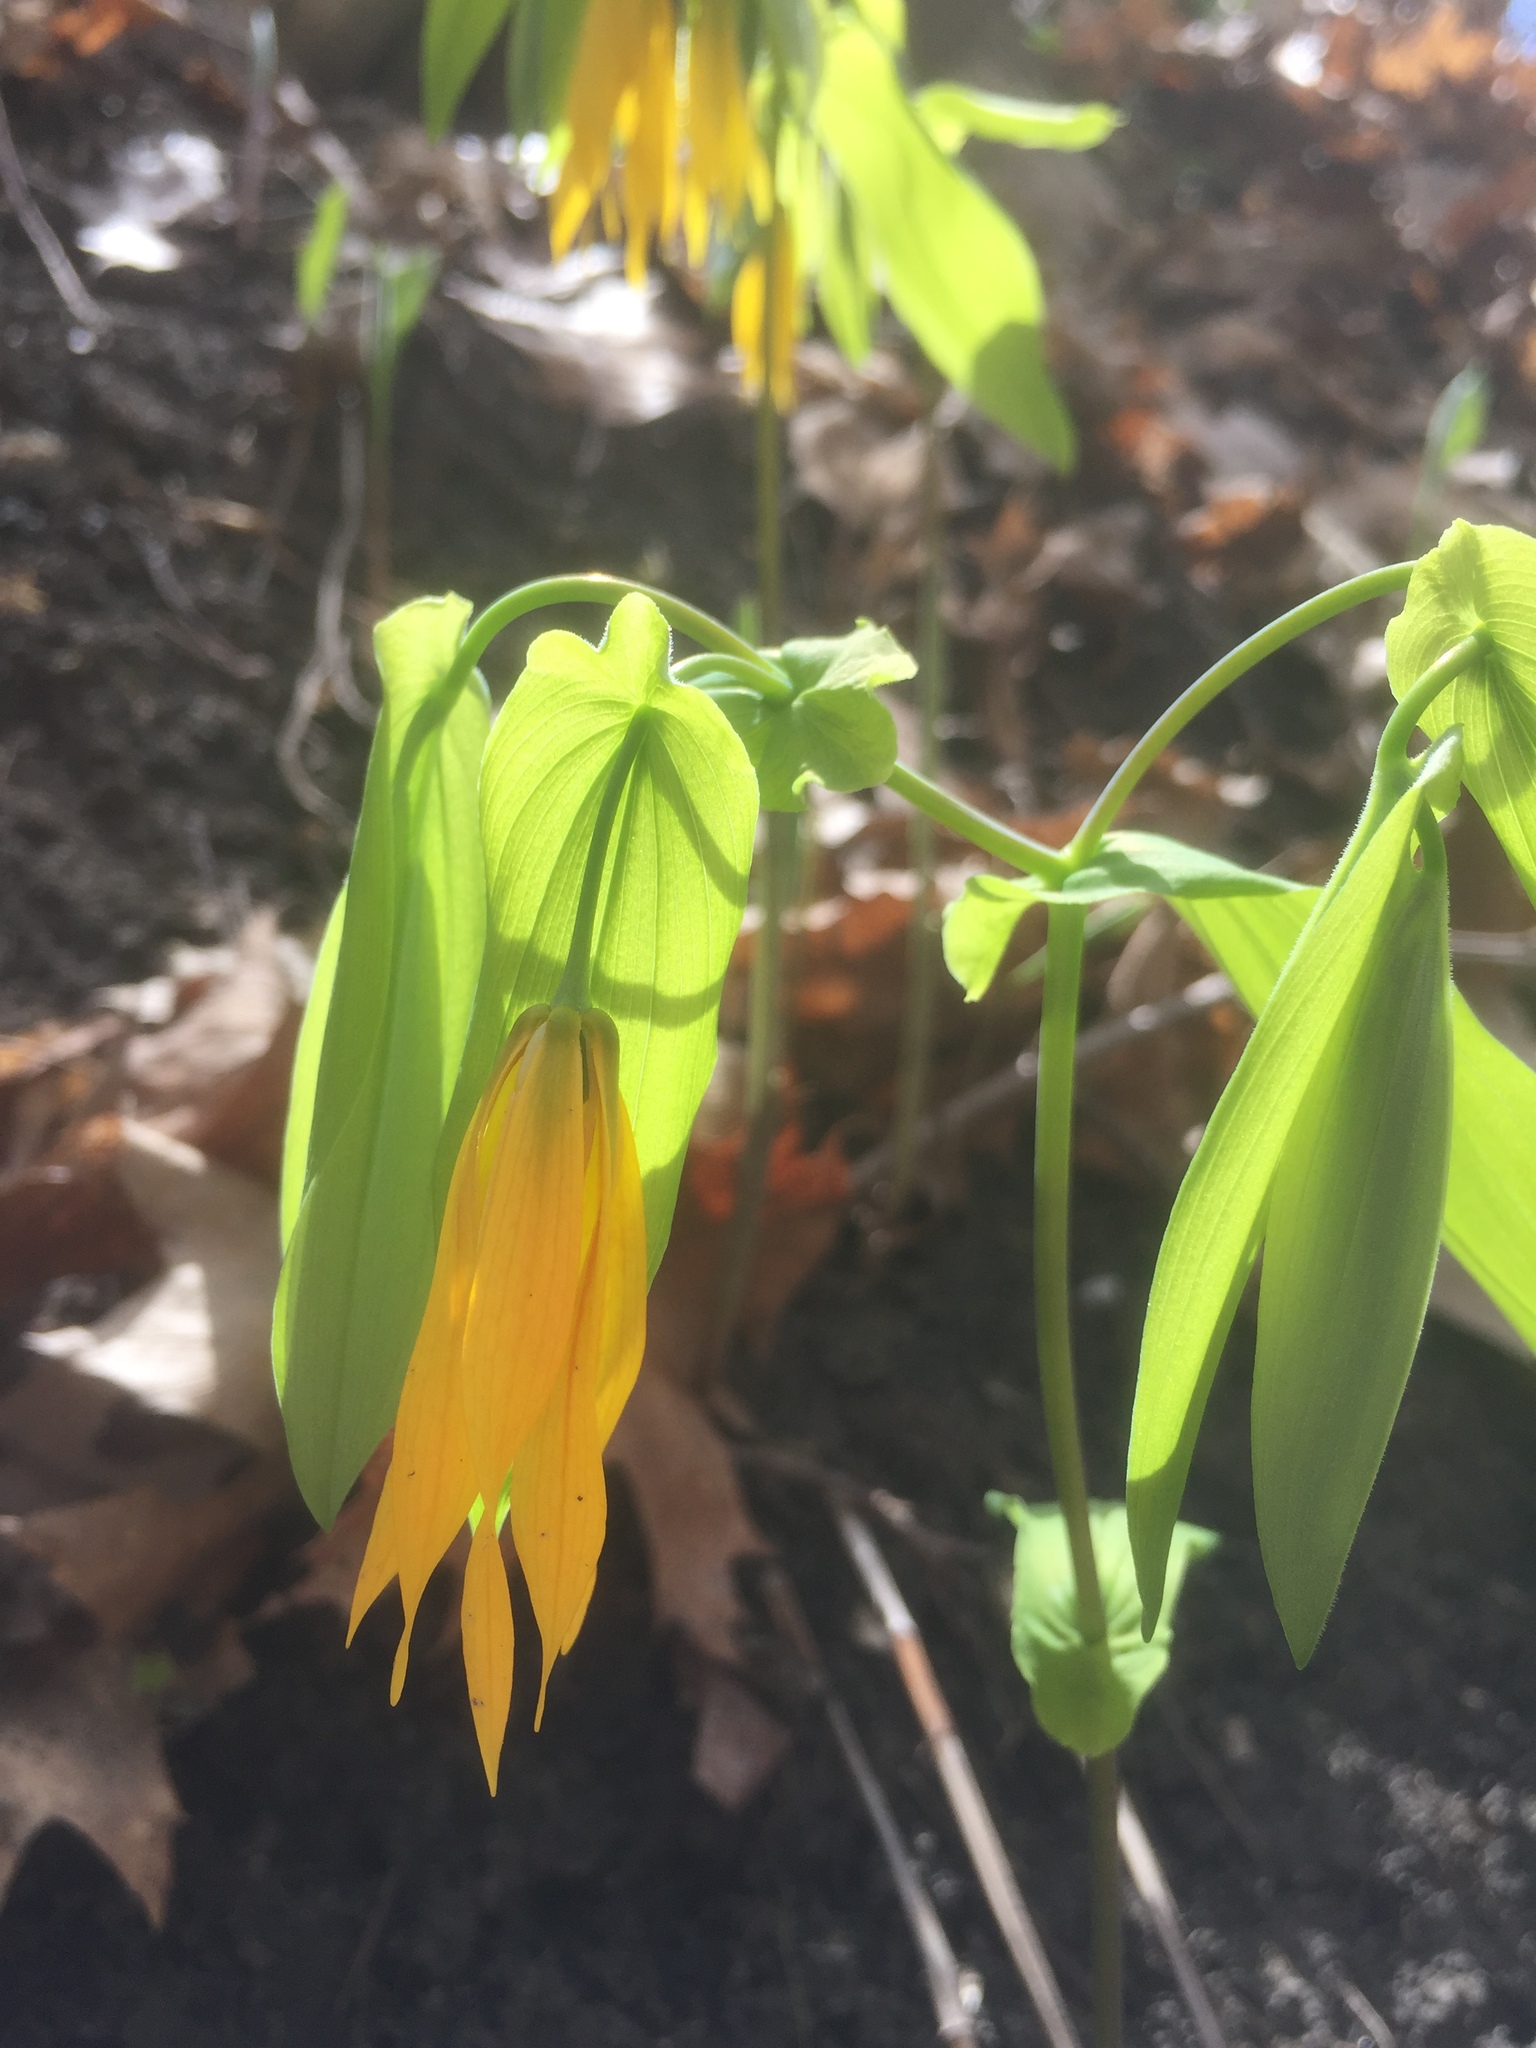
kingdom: Plantae
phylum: Tracheophyta
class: Liliopsida
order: Liliales
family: Colchicaceae
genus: Uvularia
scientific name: Uvularia grandiflora
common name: Bellwort
